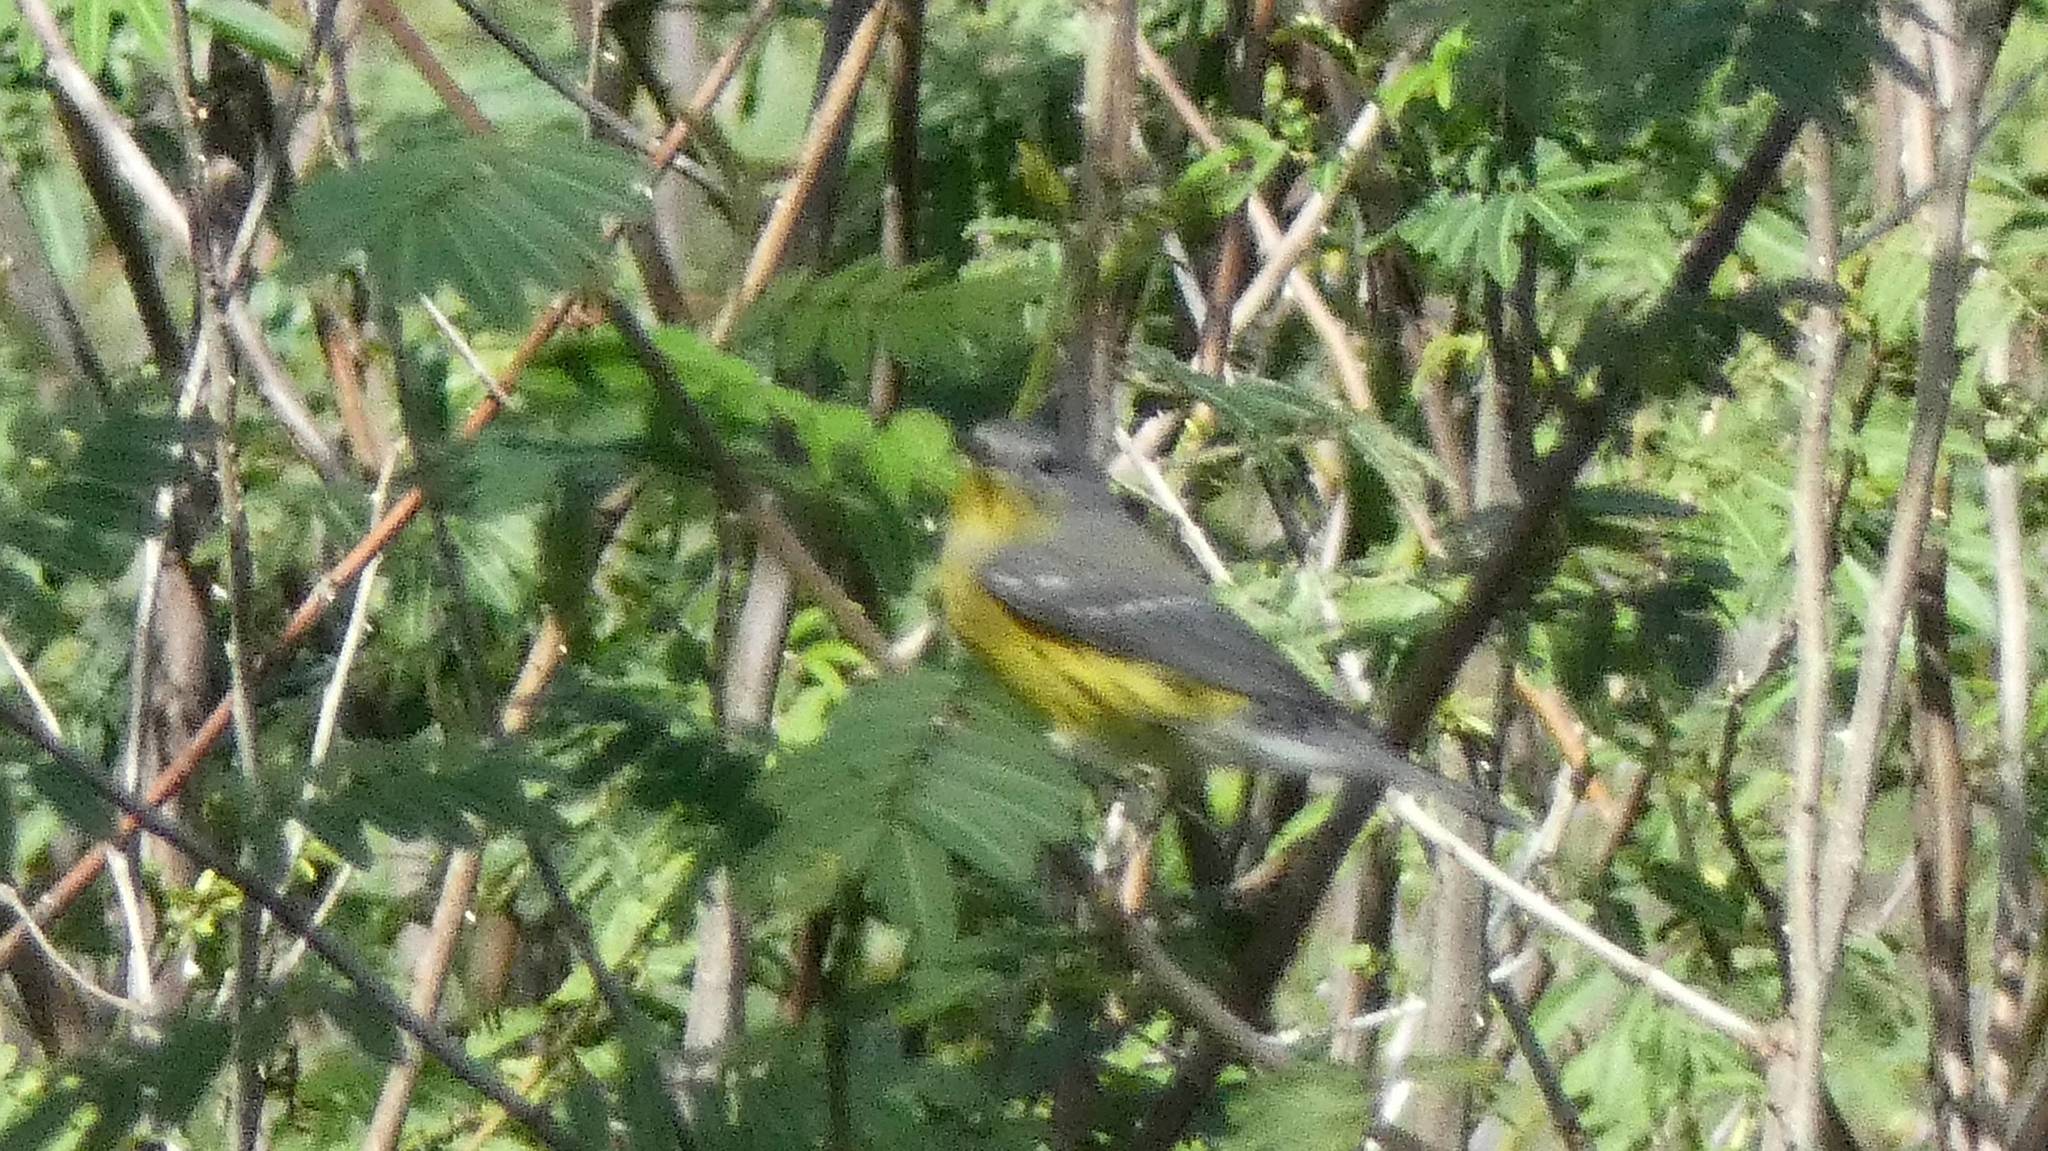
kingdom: Animalia
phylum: Chordata
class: Aves
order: Passeriformes
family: Parulidae
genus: Setophaga
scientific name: Setophaga magnolia
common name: Magnolia warbler
